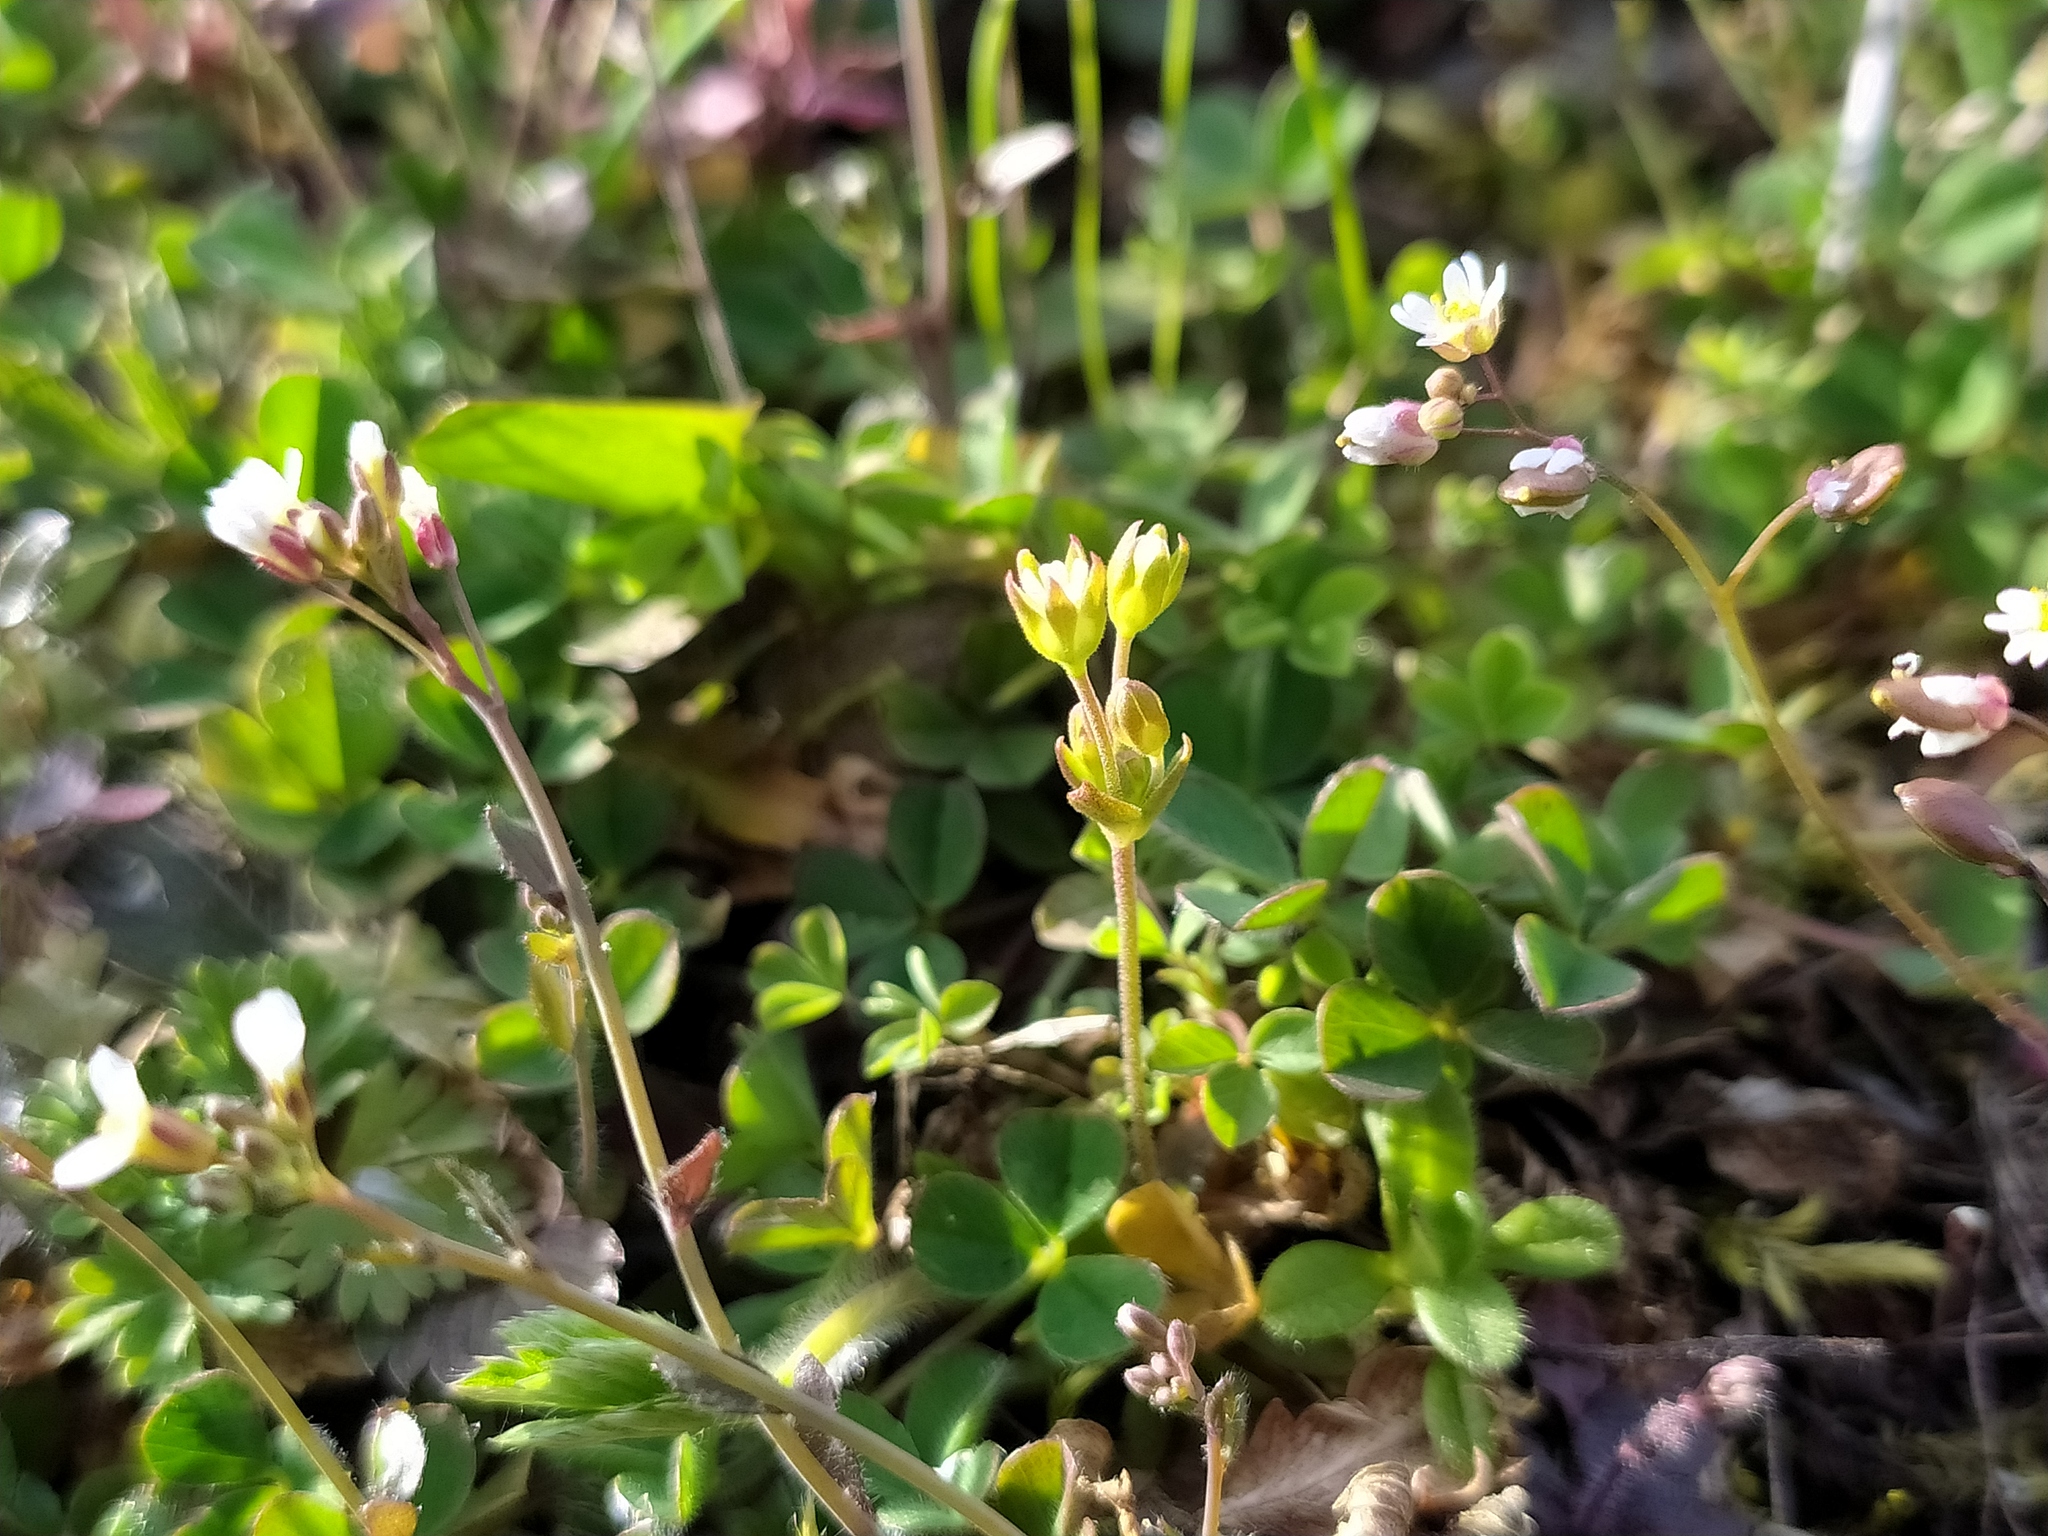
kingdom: Plantae
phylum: Tracheophyta
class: Magnoliopsida
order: Ericales
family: Primulaceae
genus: Androsace
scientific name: Androsace elongata
